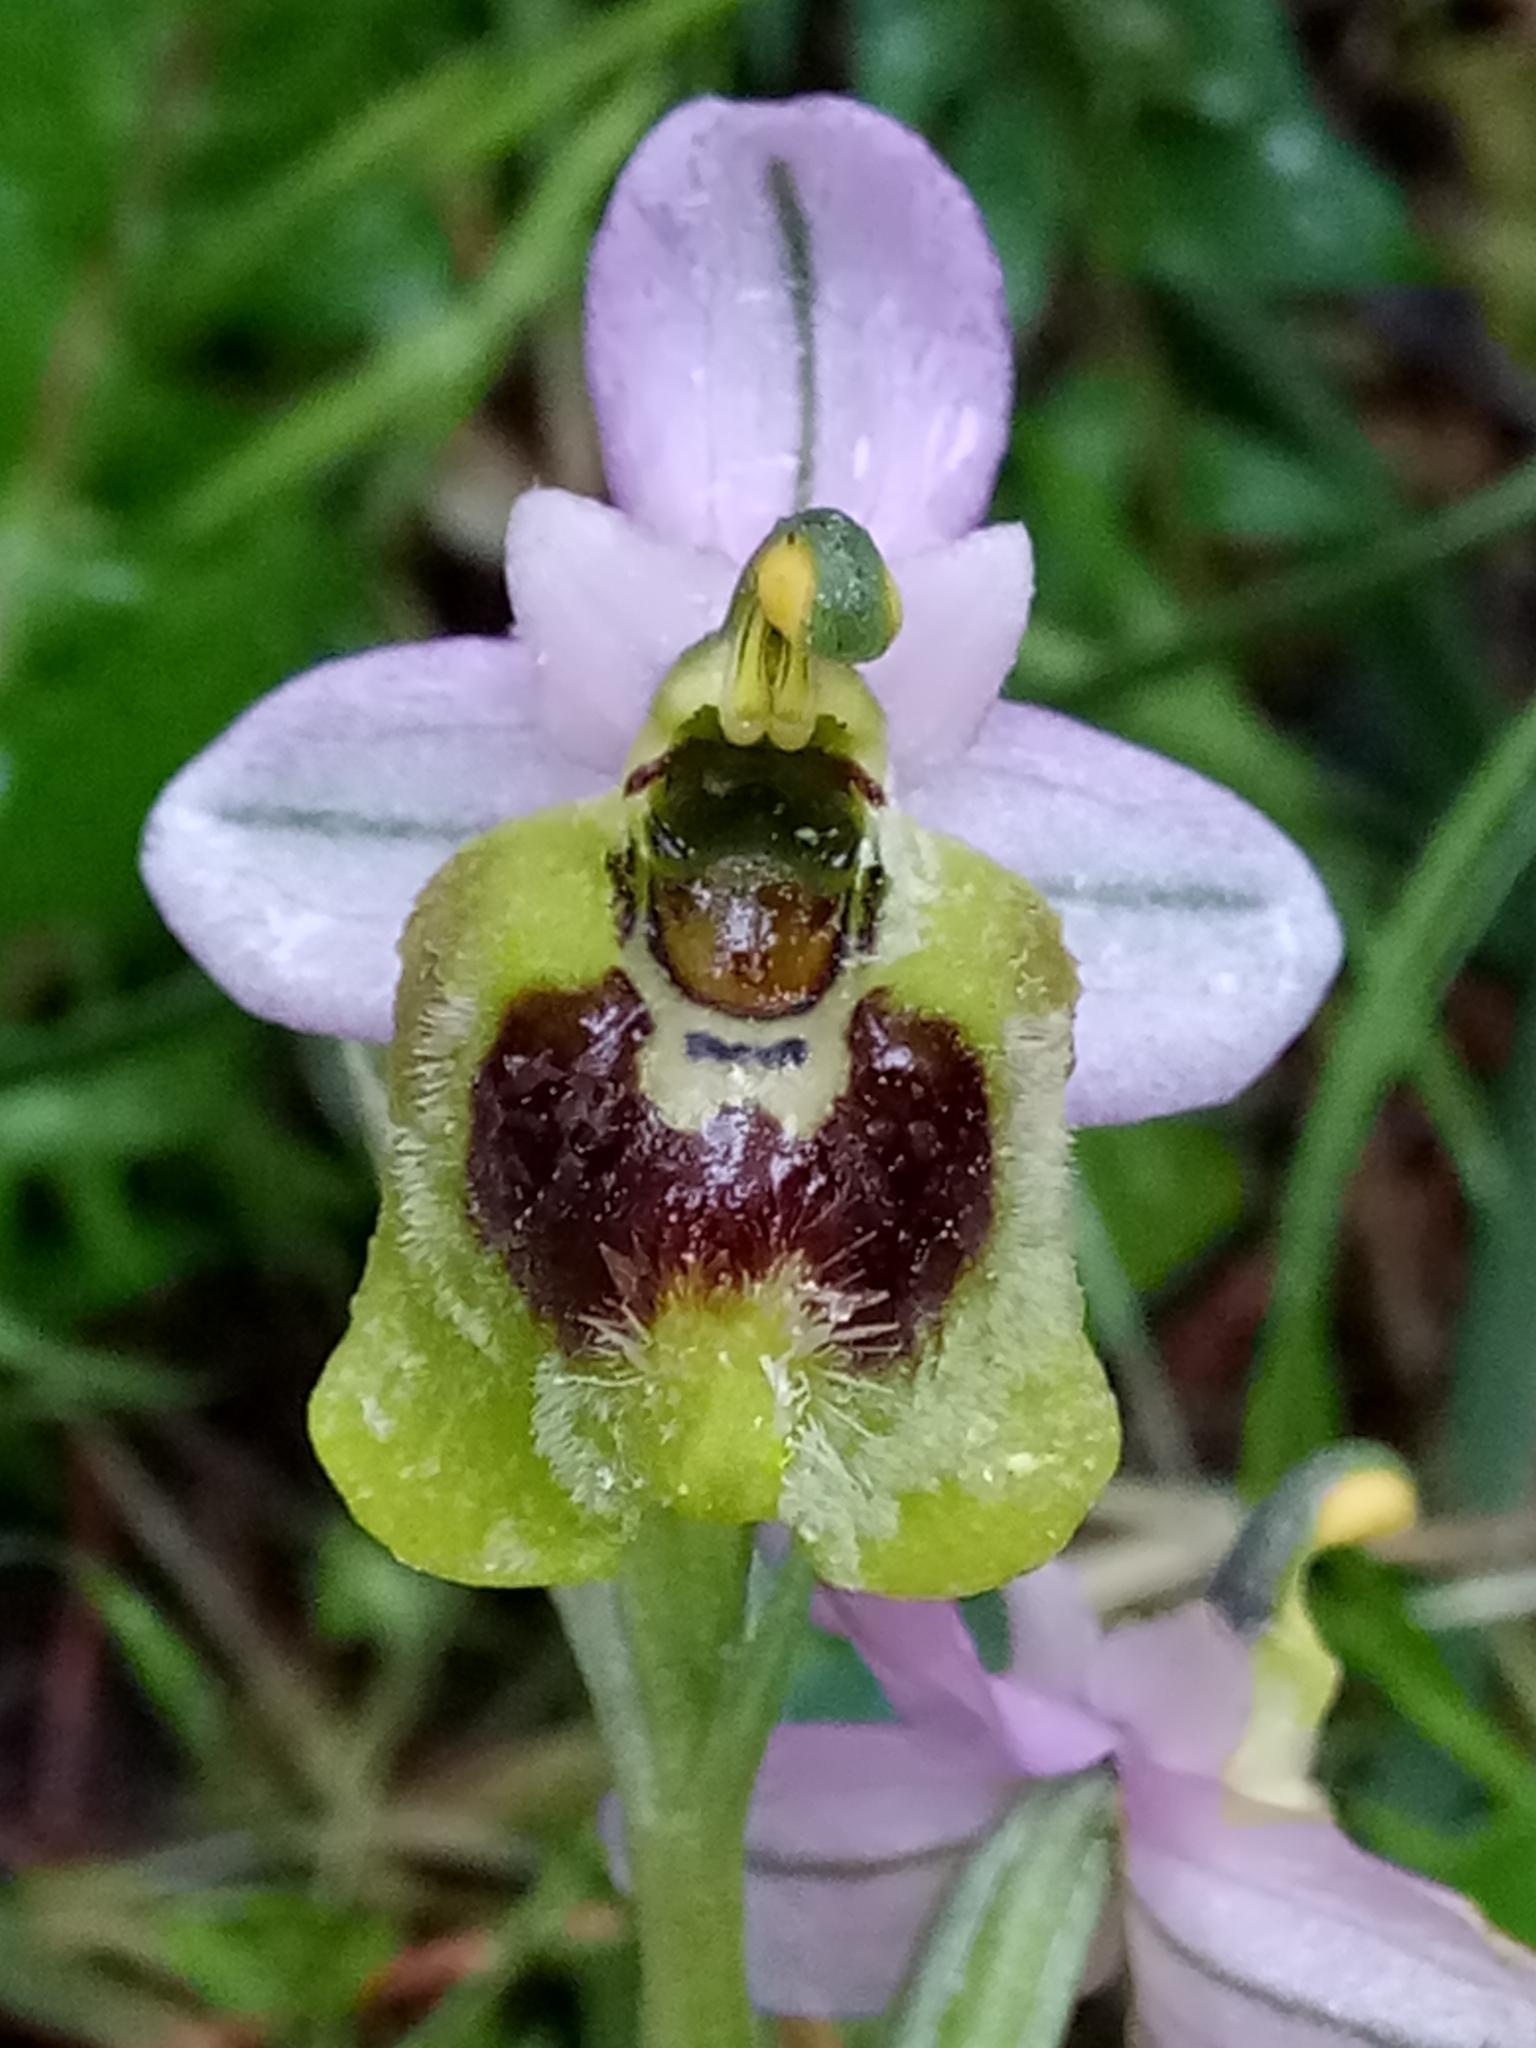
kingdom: Plantae
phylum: Tracheophyta
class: Liliopsida
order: Asparagales
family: Orchidaceae
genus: Ophrys
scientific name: Ophrys tenthredinifera
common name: Sawfly orchid
